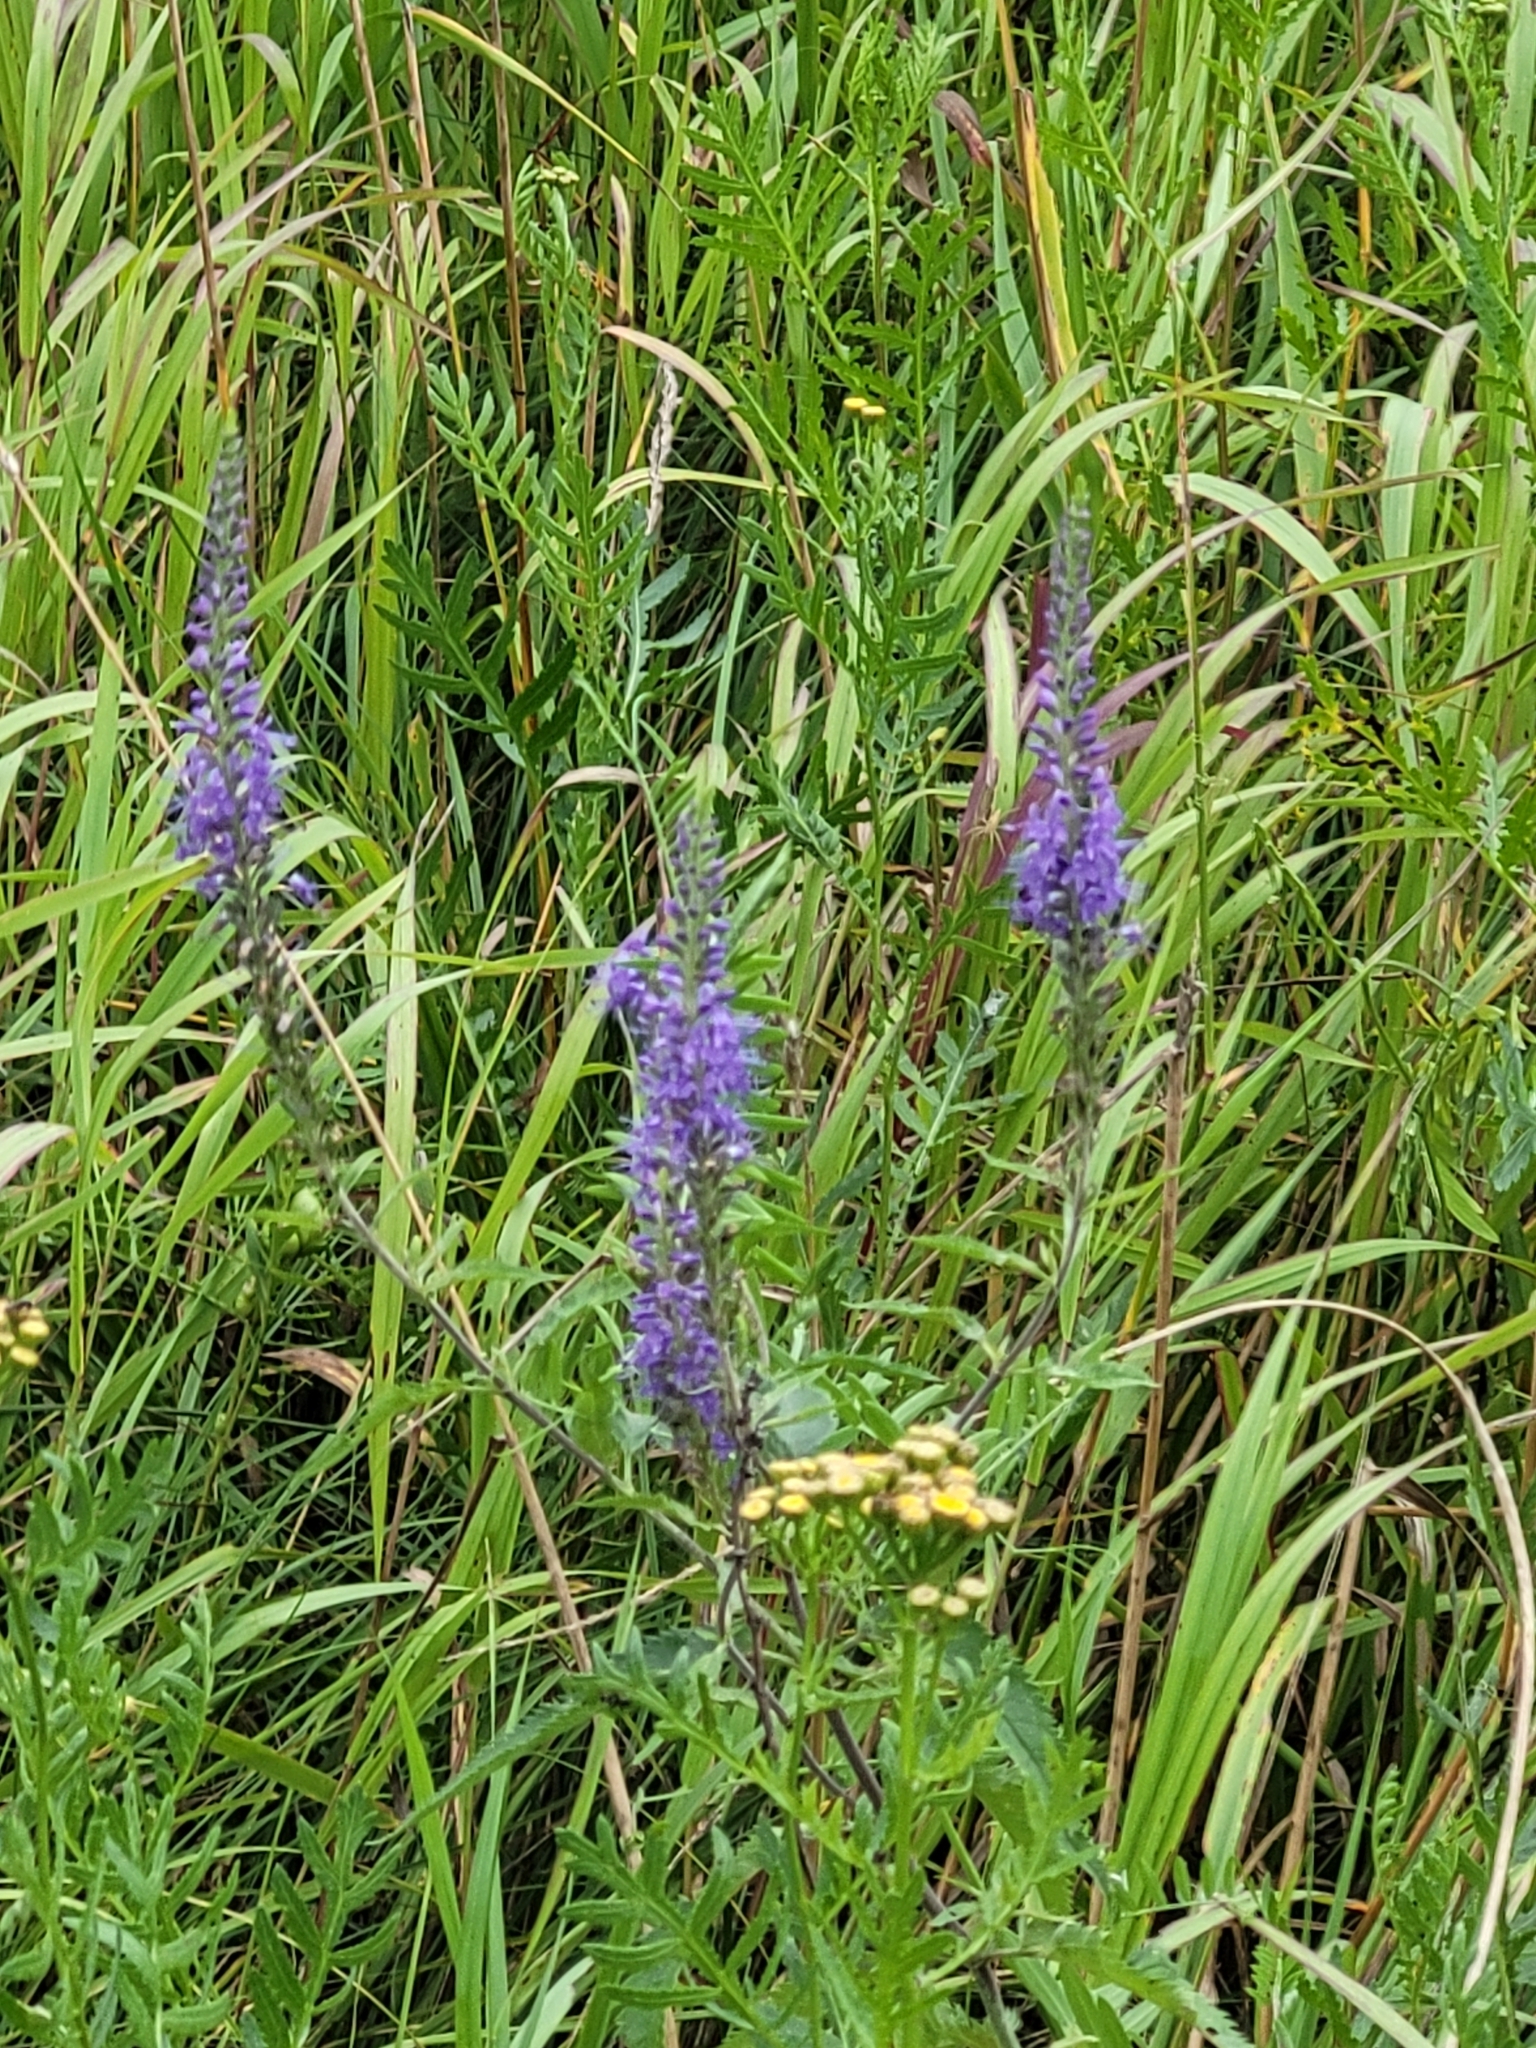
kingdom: Plantae
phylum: Tracheophyta
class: Magnoliopsida
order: Lamiales
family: Plantaginaceae
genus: Veronica
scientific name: Veronica longifolia
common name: Garden speedwell
